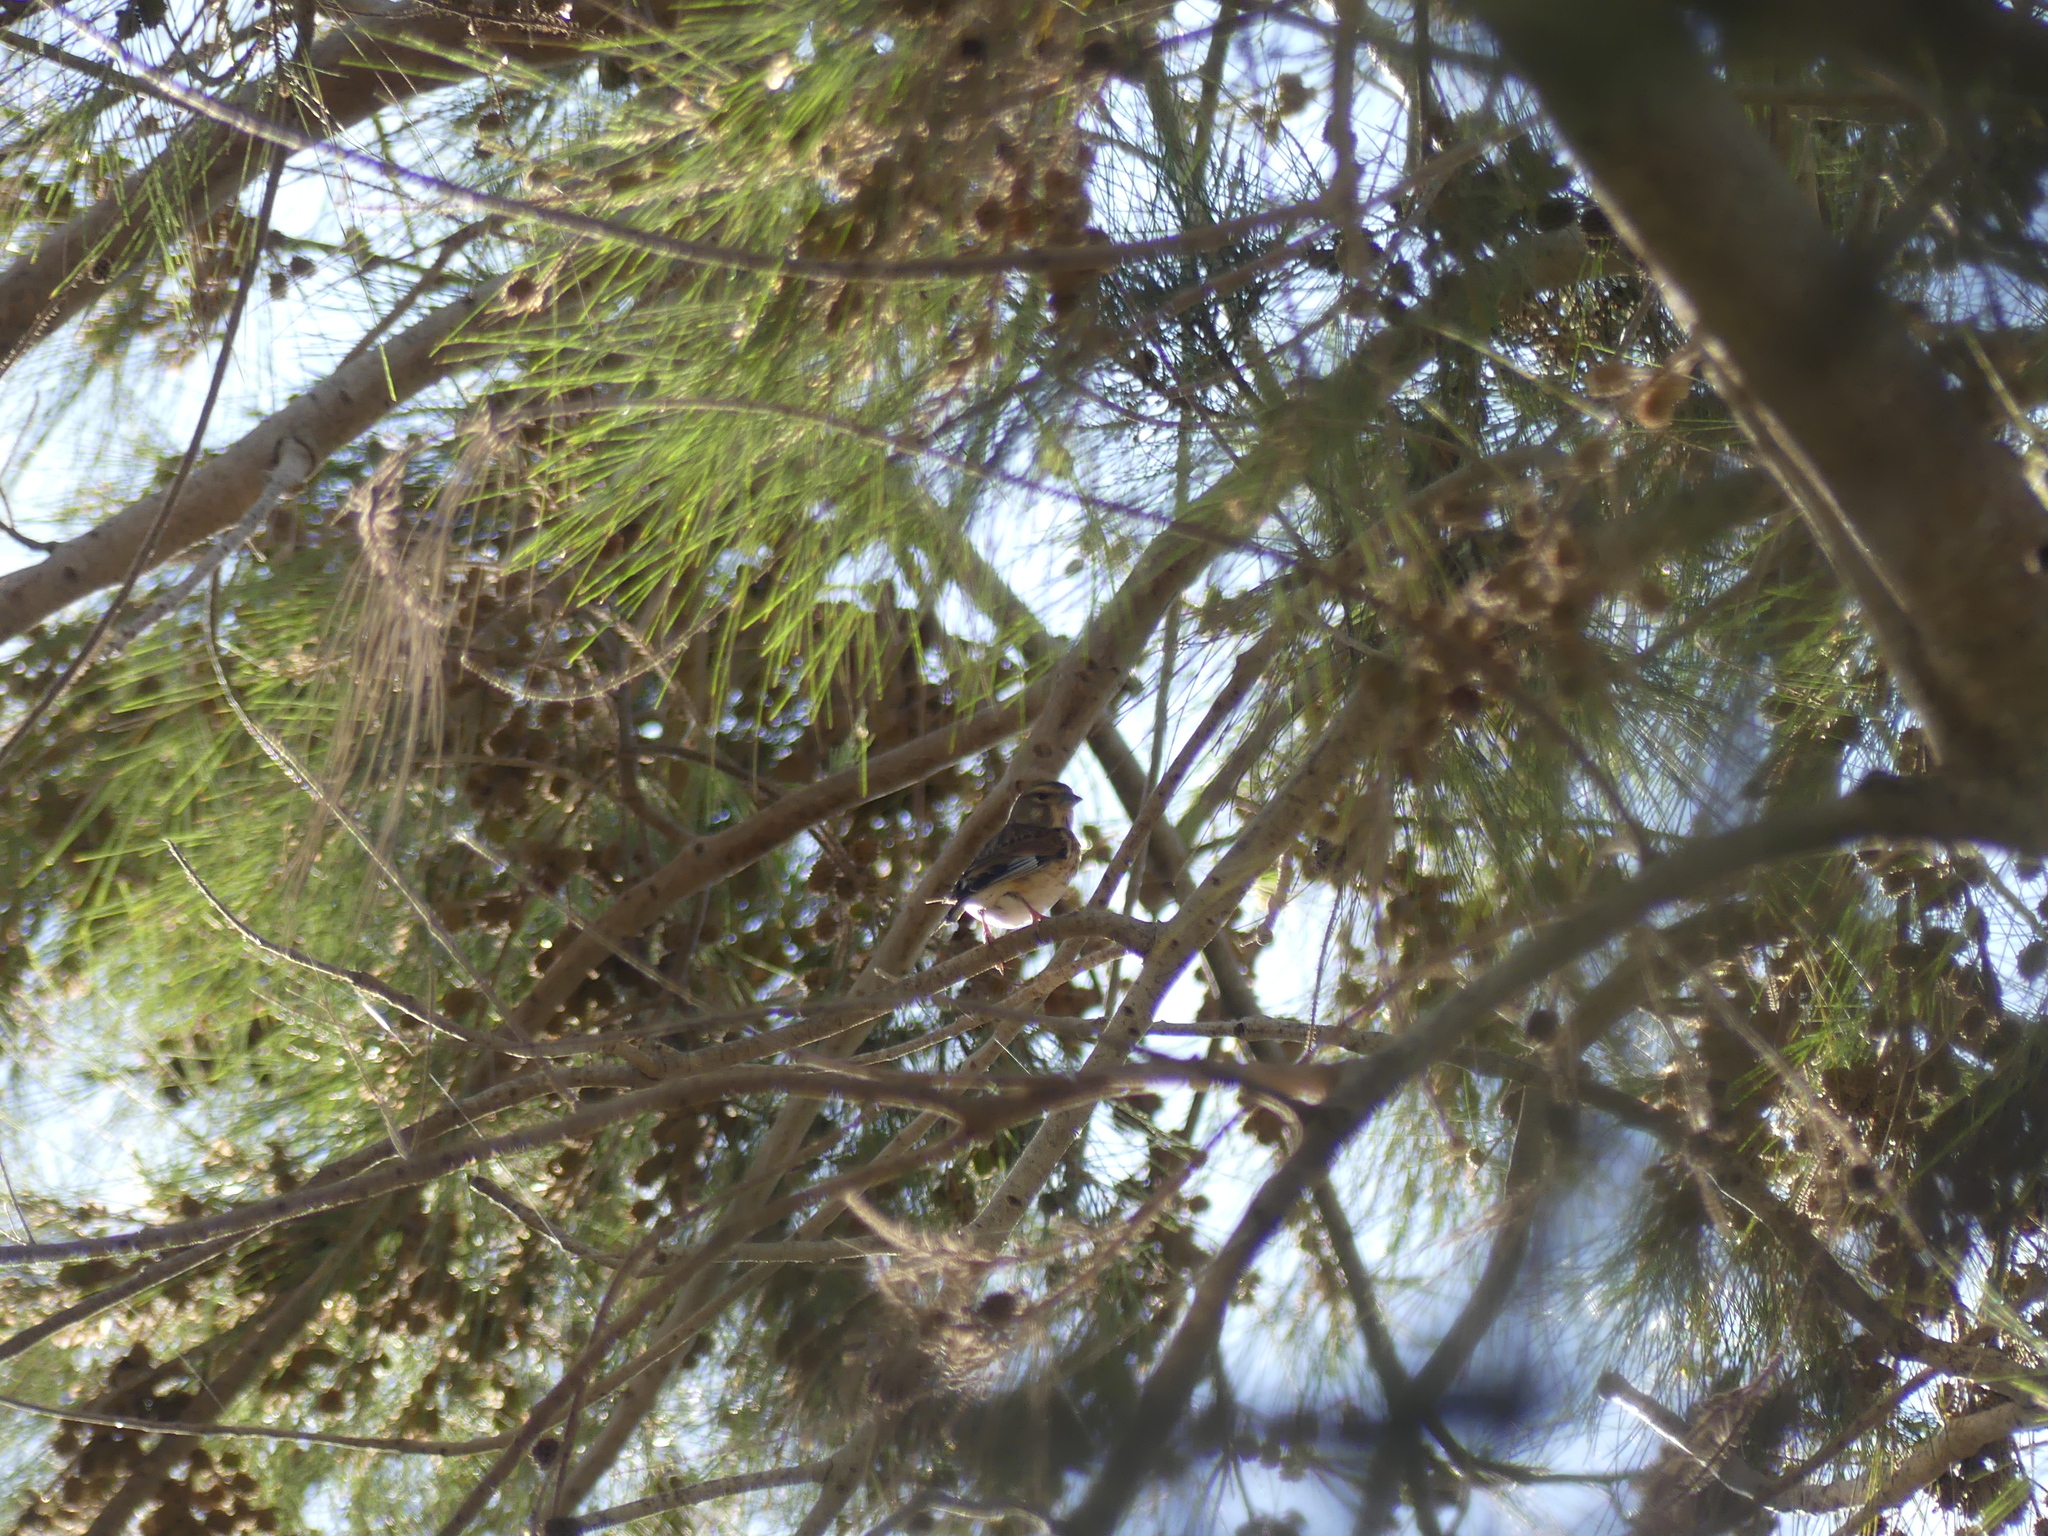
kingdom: Animalia
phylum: Chordata
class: Aves
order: Passeriformes
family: Fringillidae
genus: Linaria
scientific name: Linaria cannabina
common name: Common linnet
